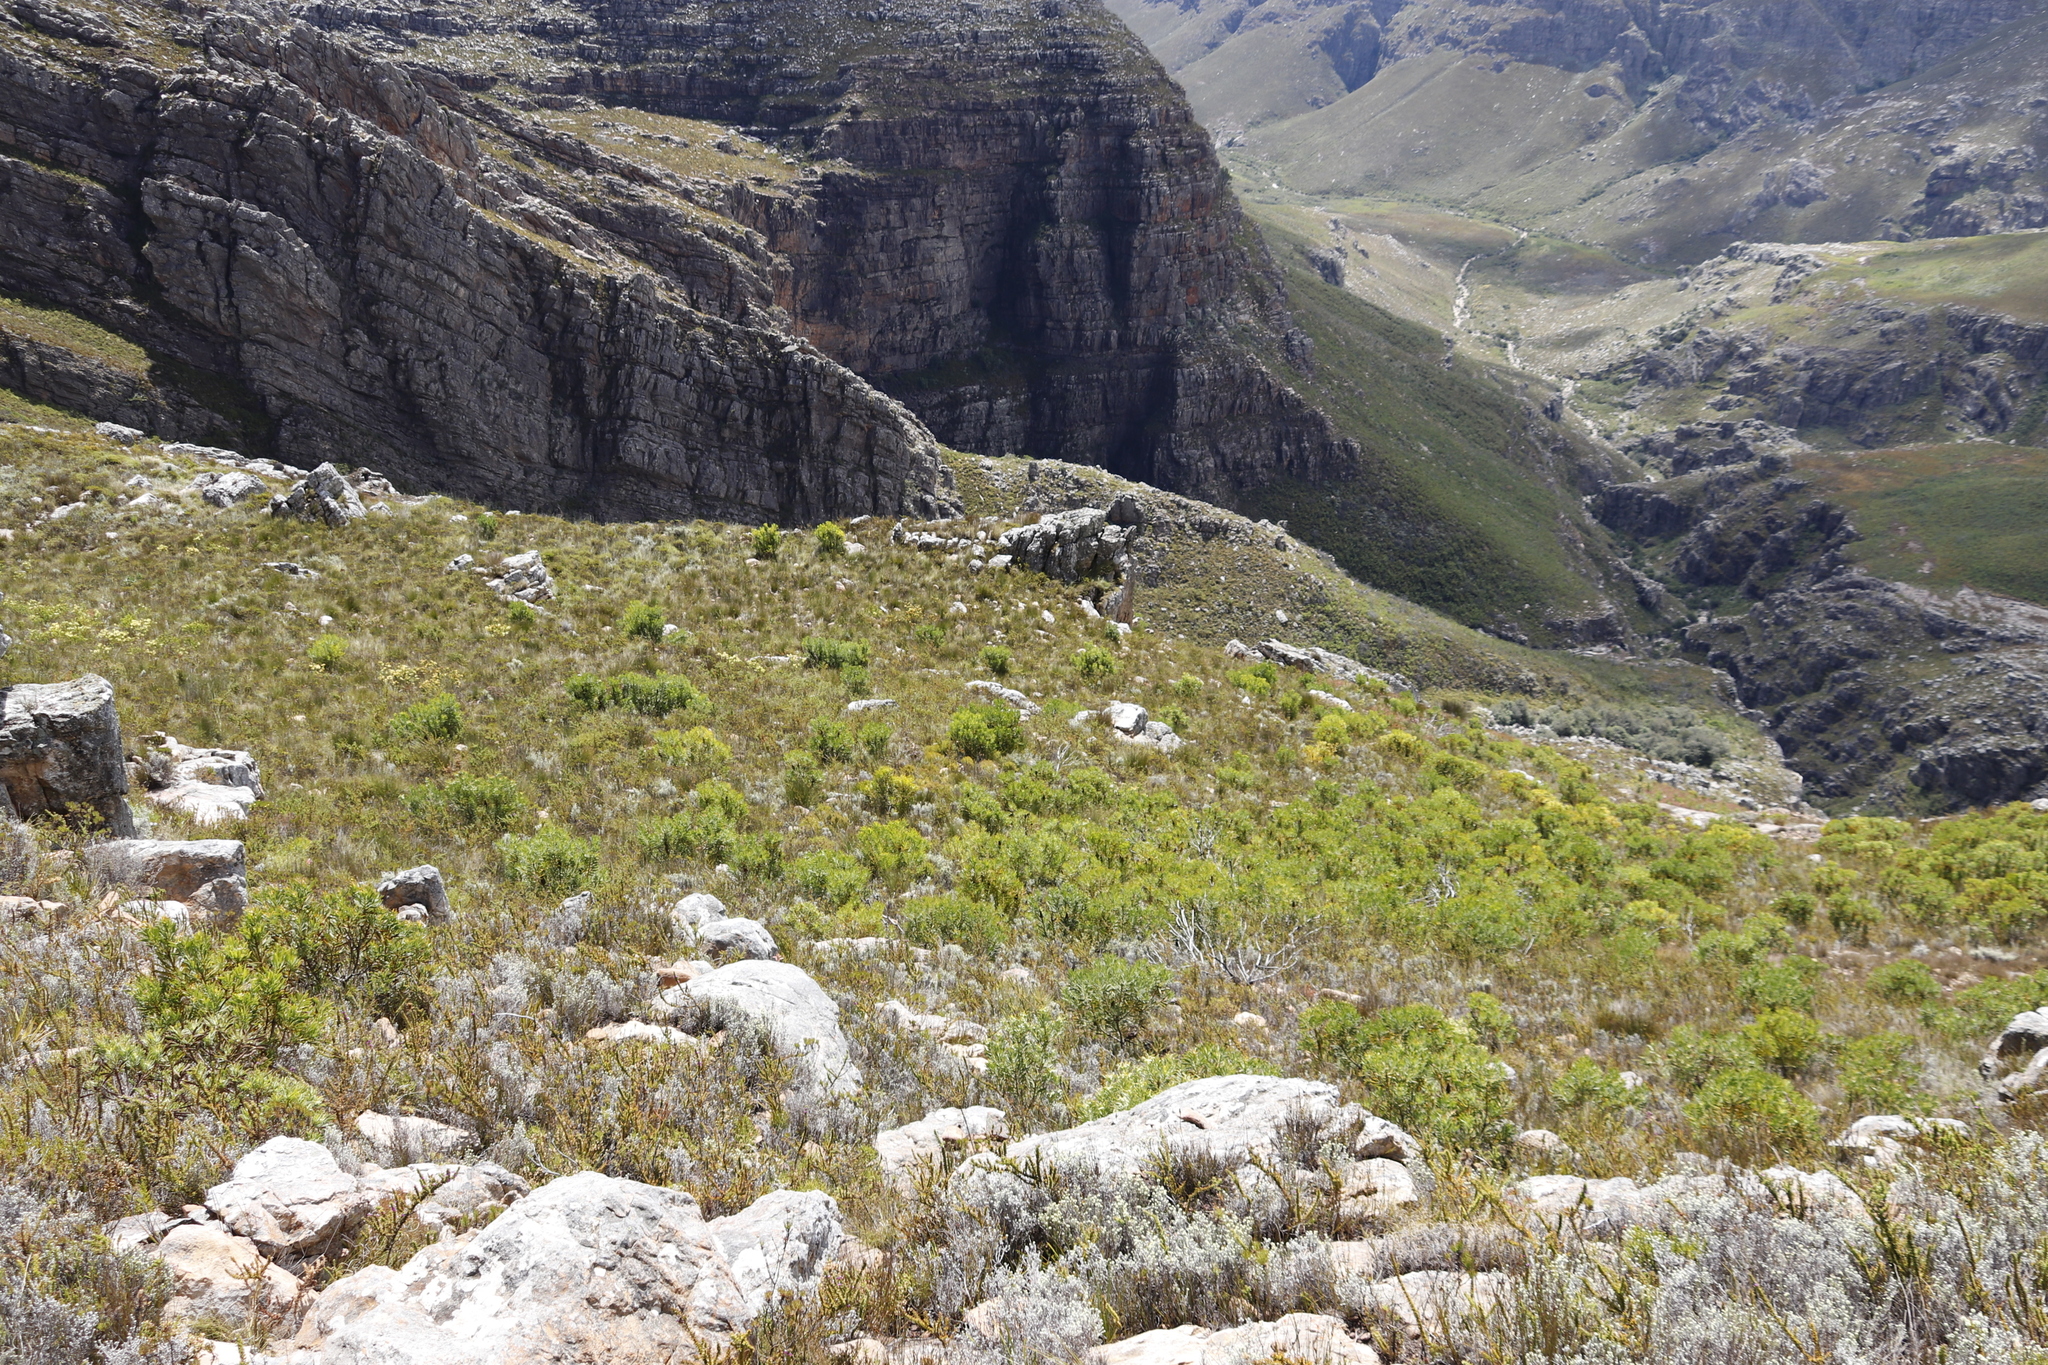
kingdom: Plantae
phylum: Tracheophyta
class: Magnoliopsida
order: Proteales
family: Proteaceae
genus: Protea
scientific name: Protea repens
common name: Sugarbush
